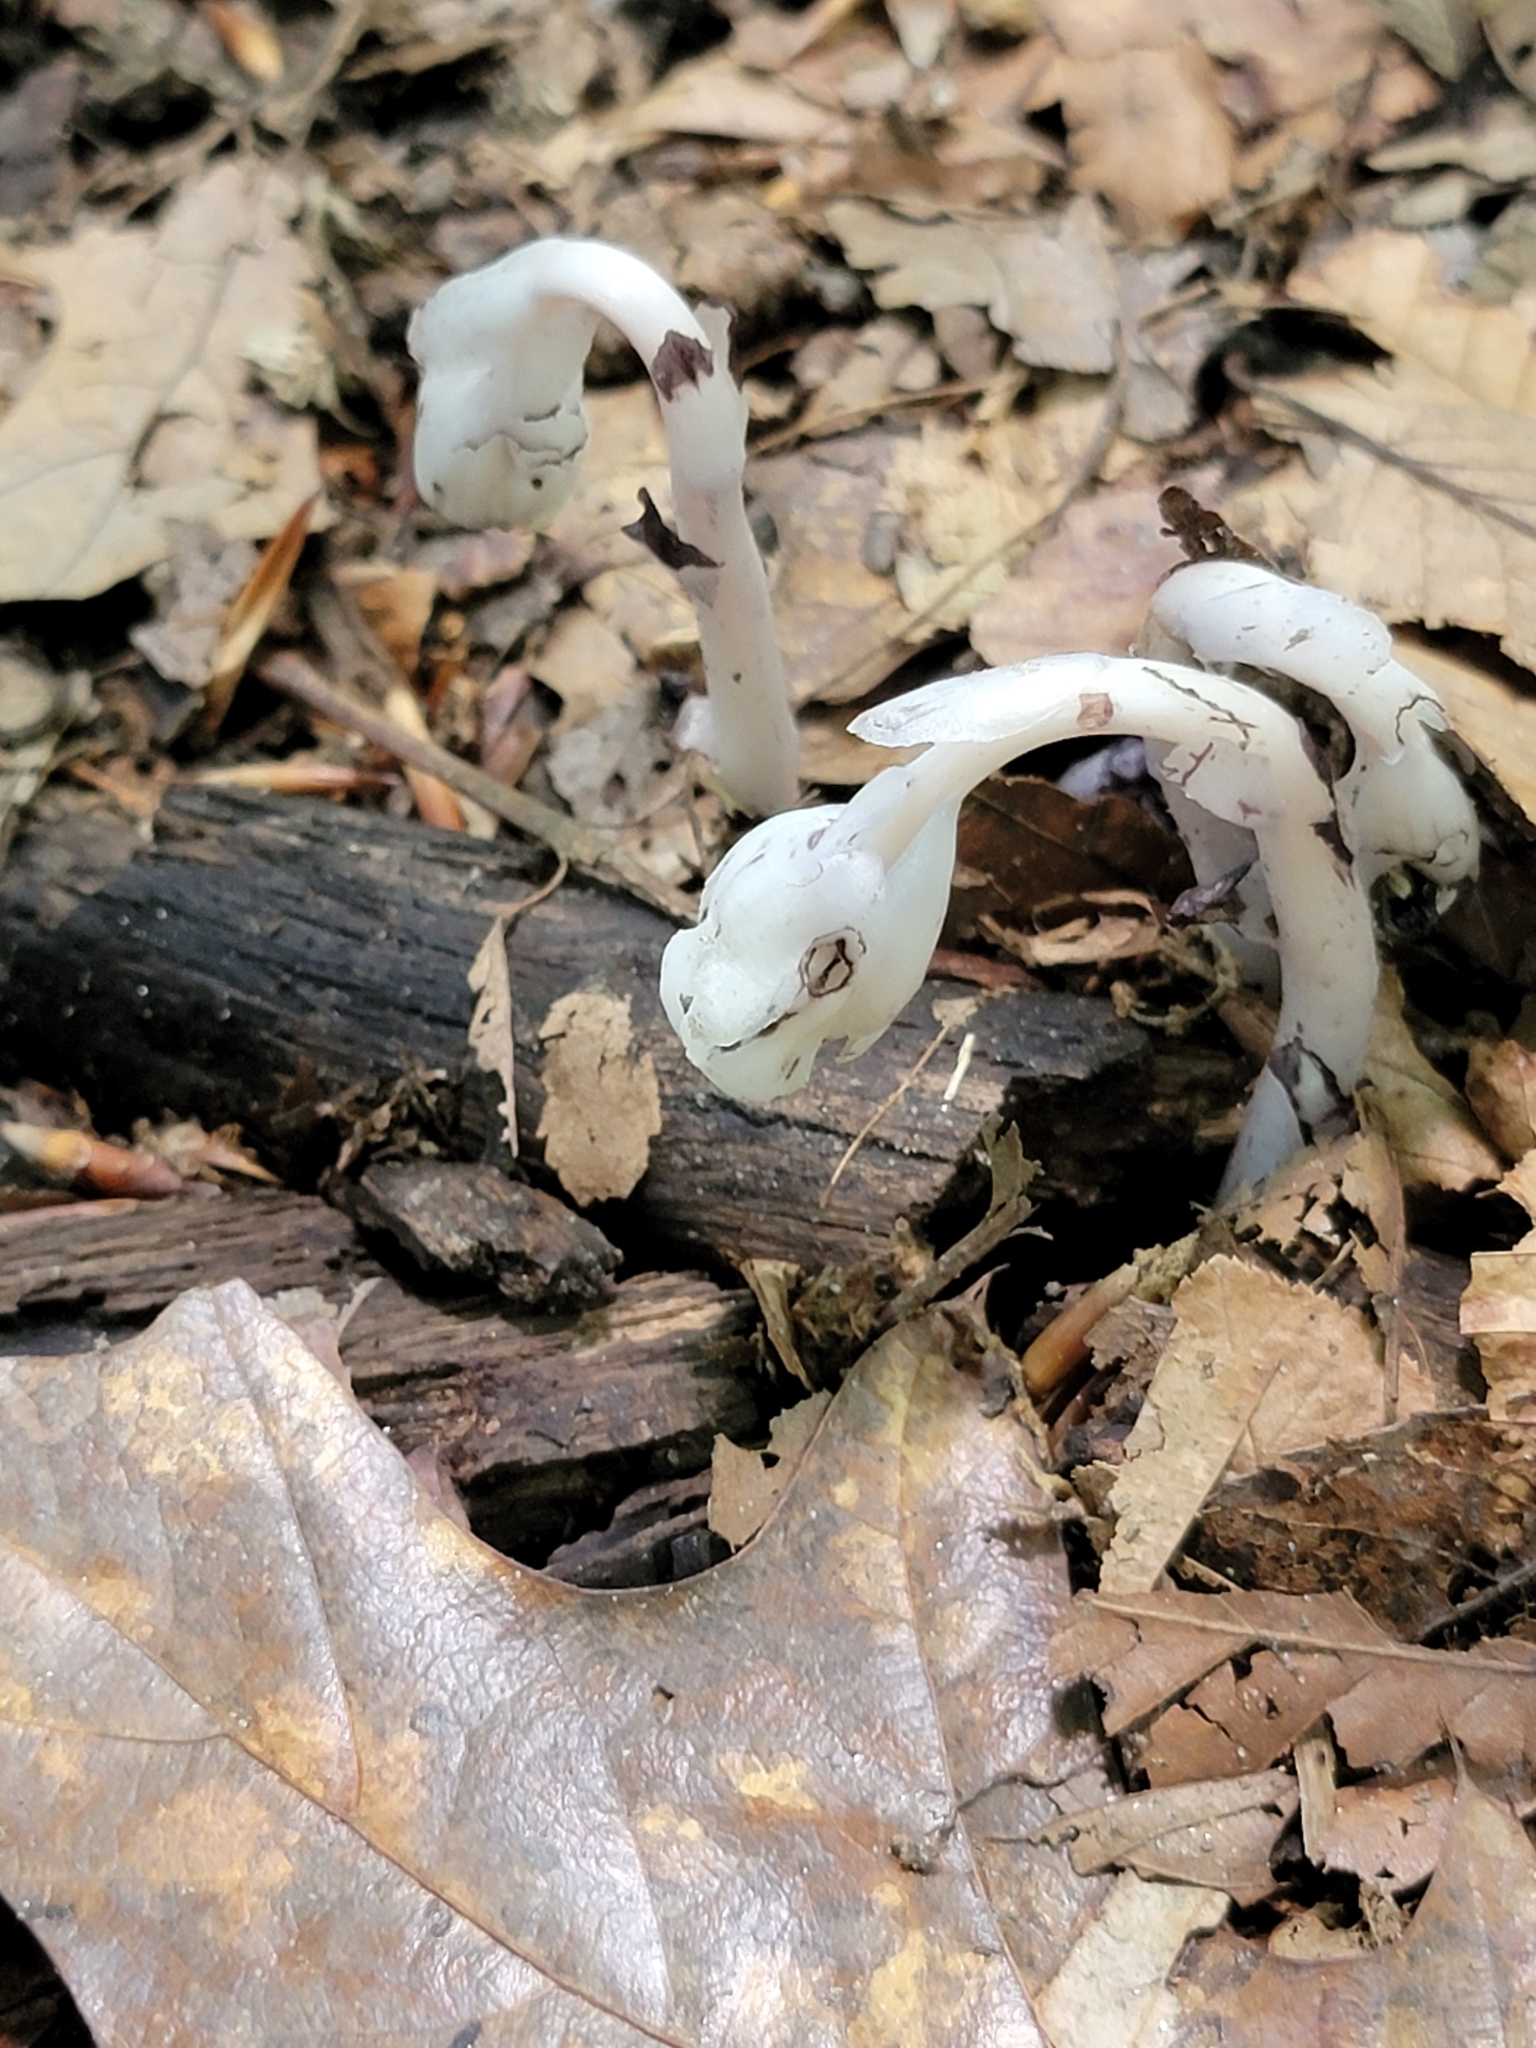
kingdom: Plantae
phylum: Tracheophyta
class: Magnoliopsida
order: Ericales
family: Ericaceae
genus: Monotropa
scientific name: Monotropa uniflora
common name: Convulsion root
